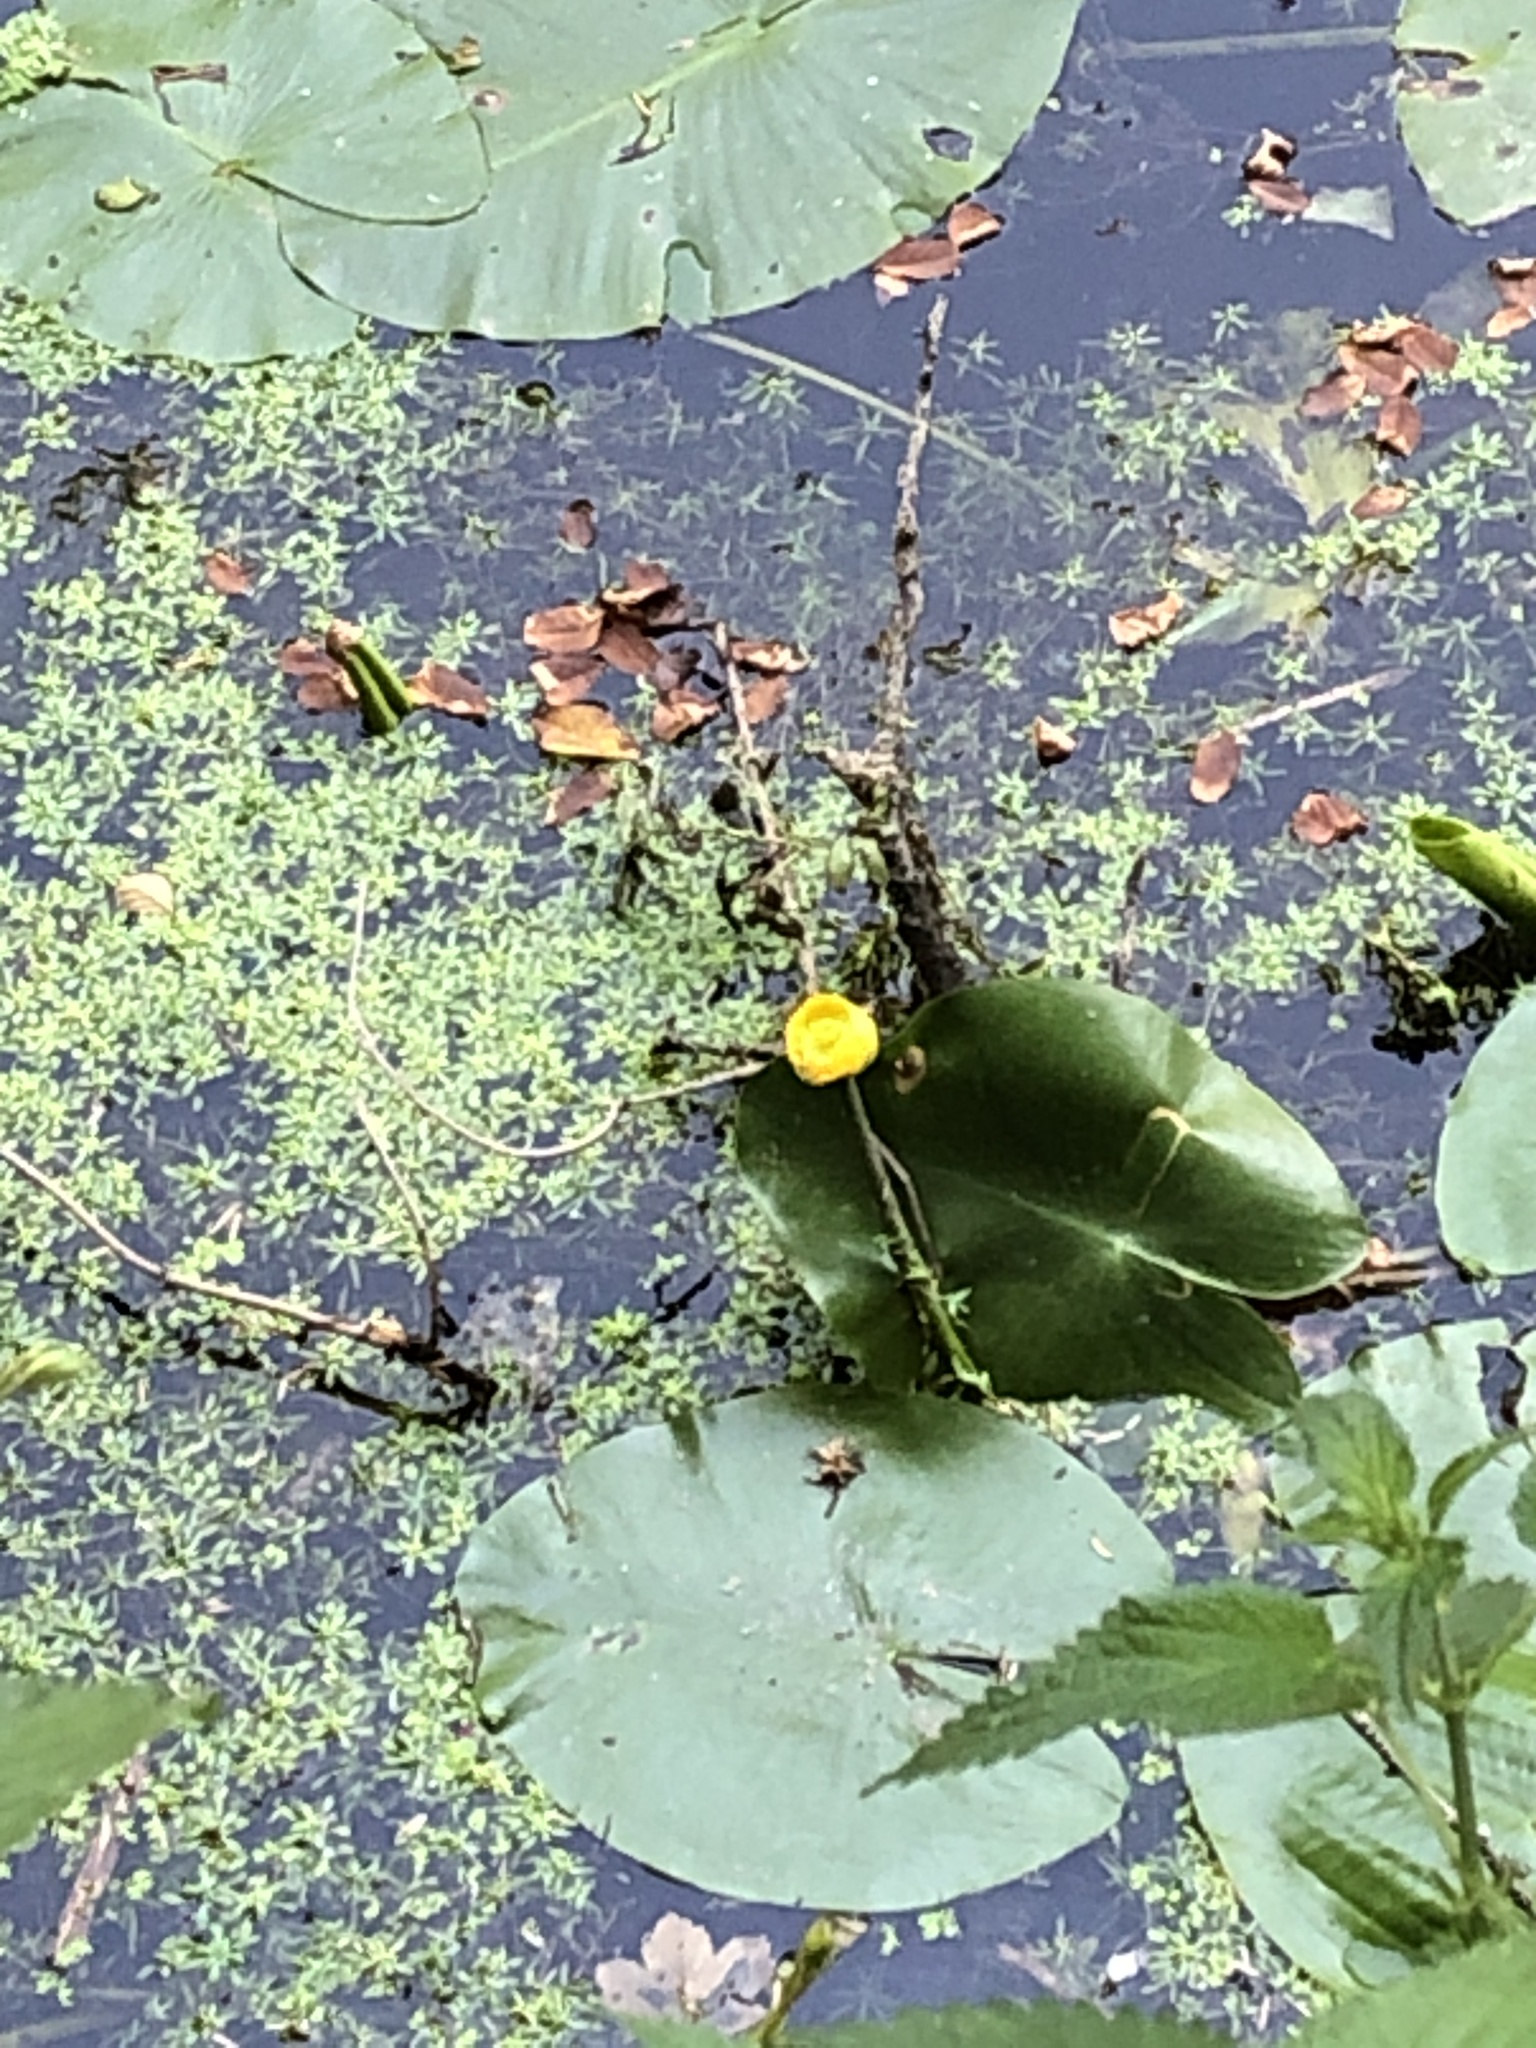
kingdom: Plantae
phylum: Tracheophyta
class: Magnoliopsida
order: Nymphaeales
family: Nymphaeaceae
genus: Nuphar
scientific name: Nuphar lutea
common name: Yellow water-lily
